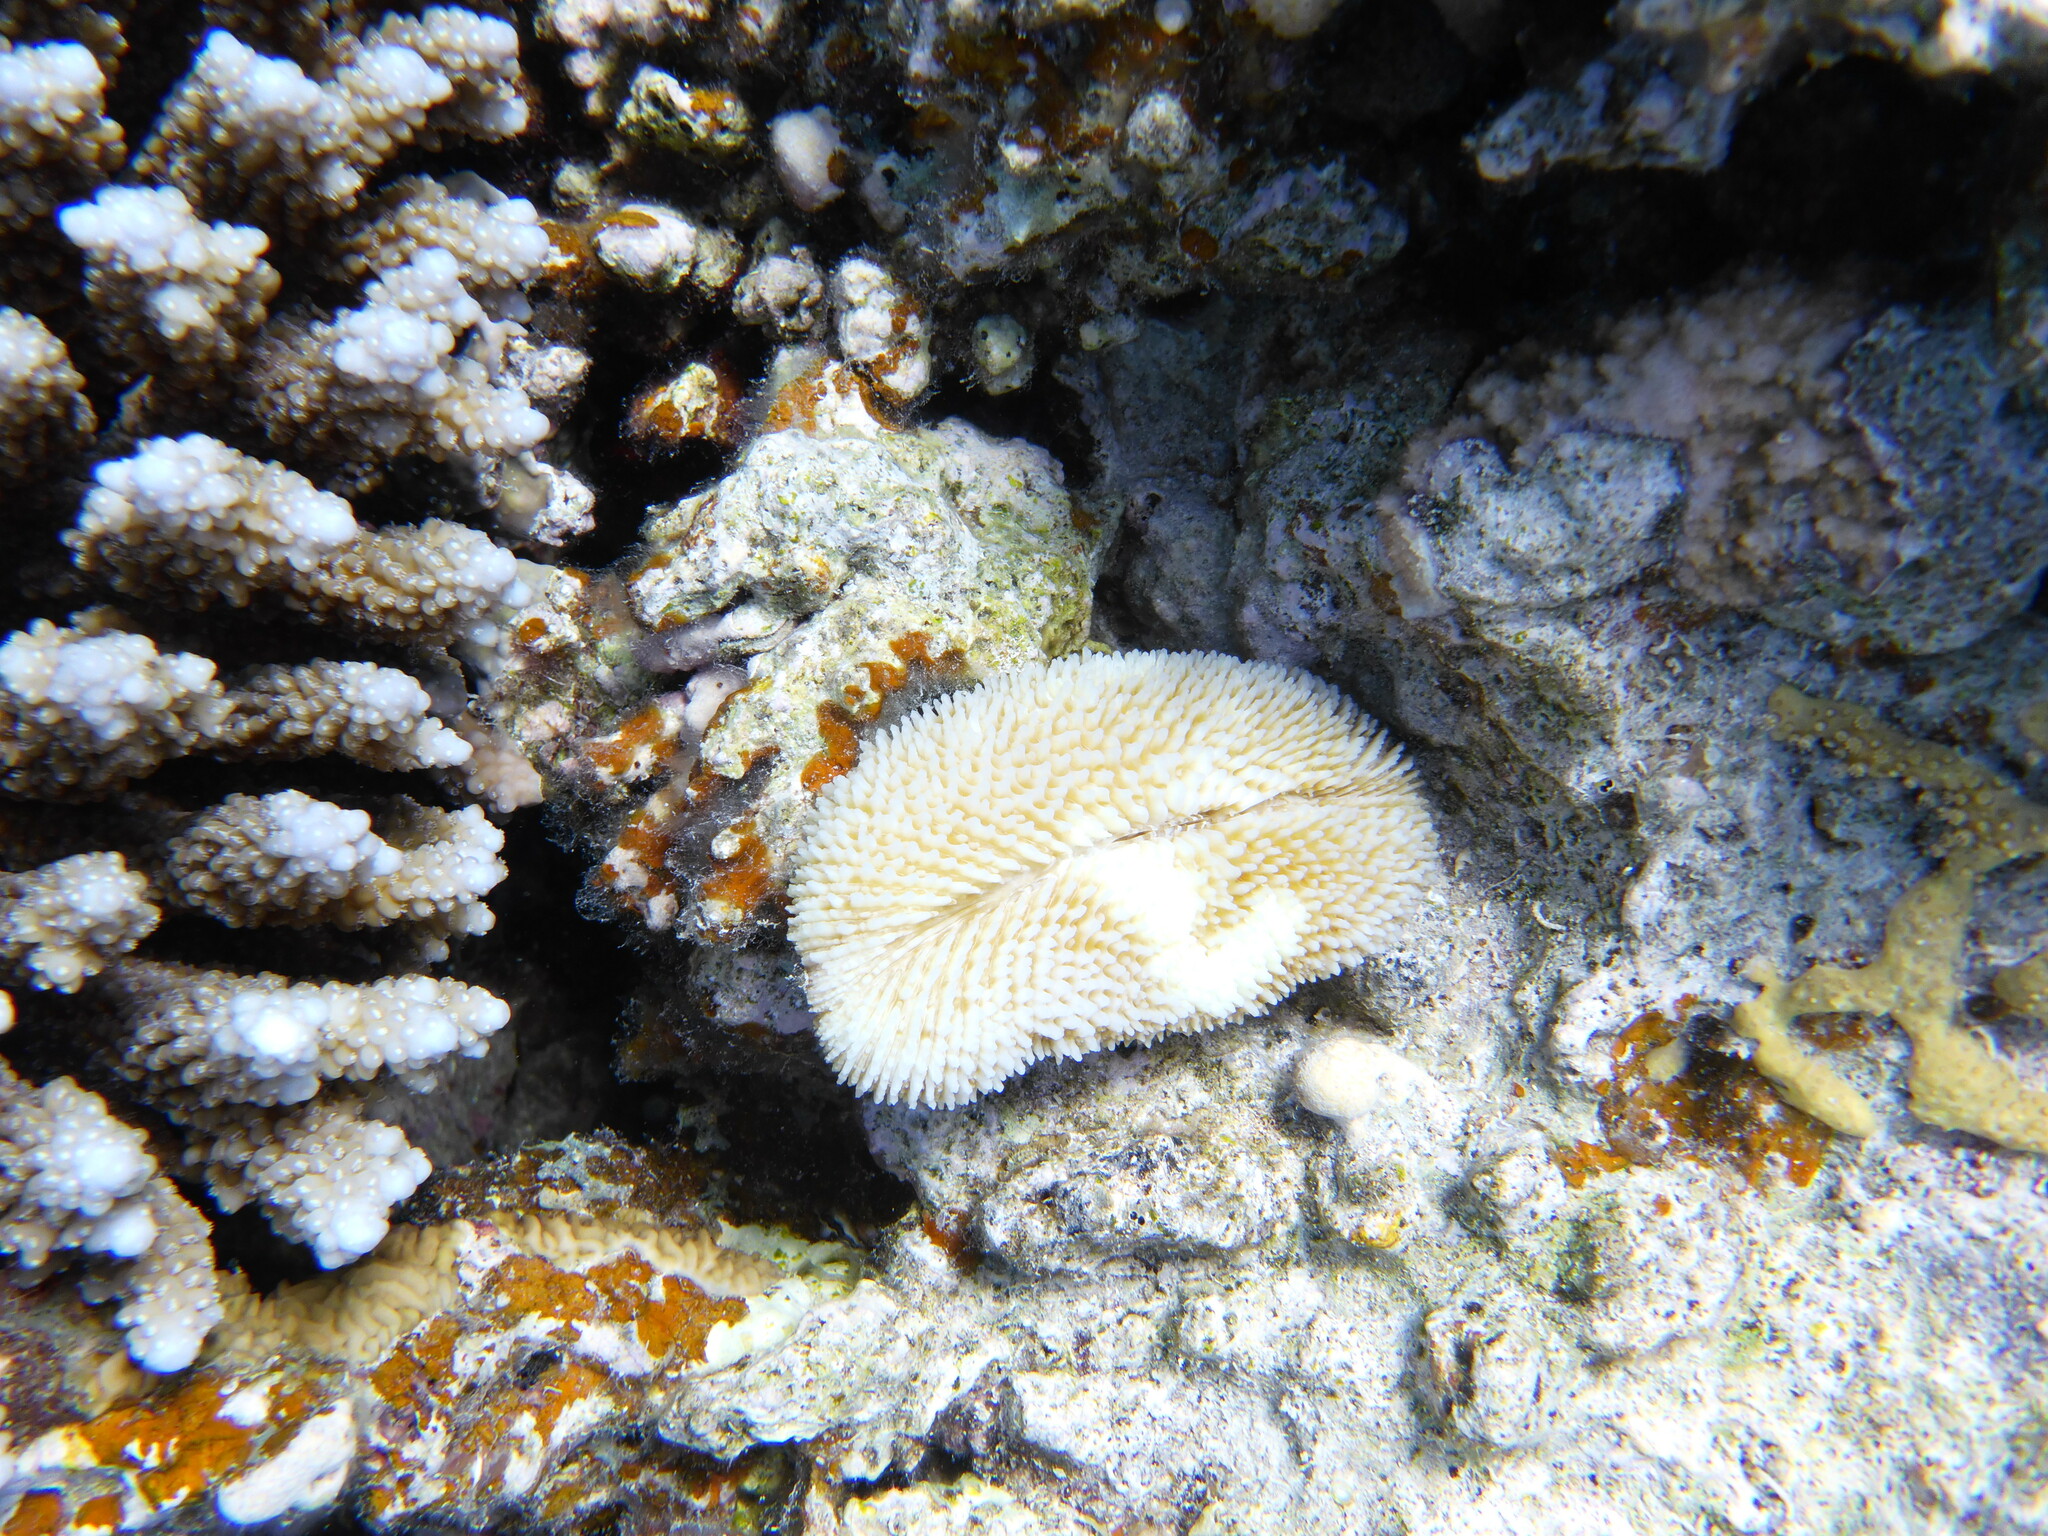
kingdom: Animalia
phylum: Cnidaria
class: Anthozoa
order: Scleractinia
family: Fungiidae
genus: Ctenactis
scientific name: Ctenactis crassa
